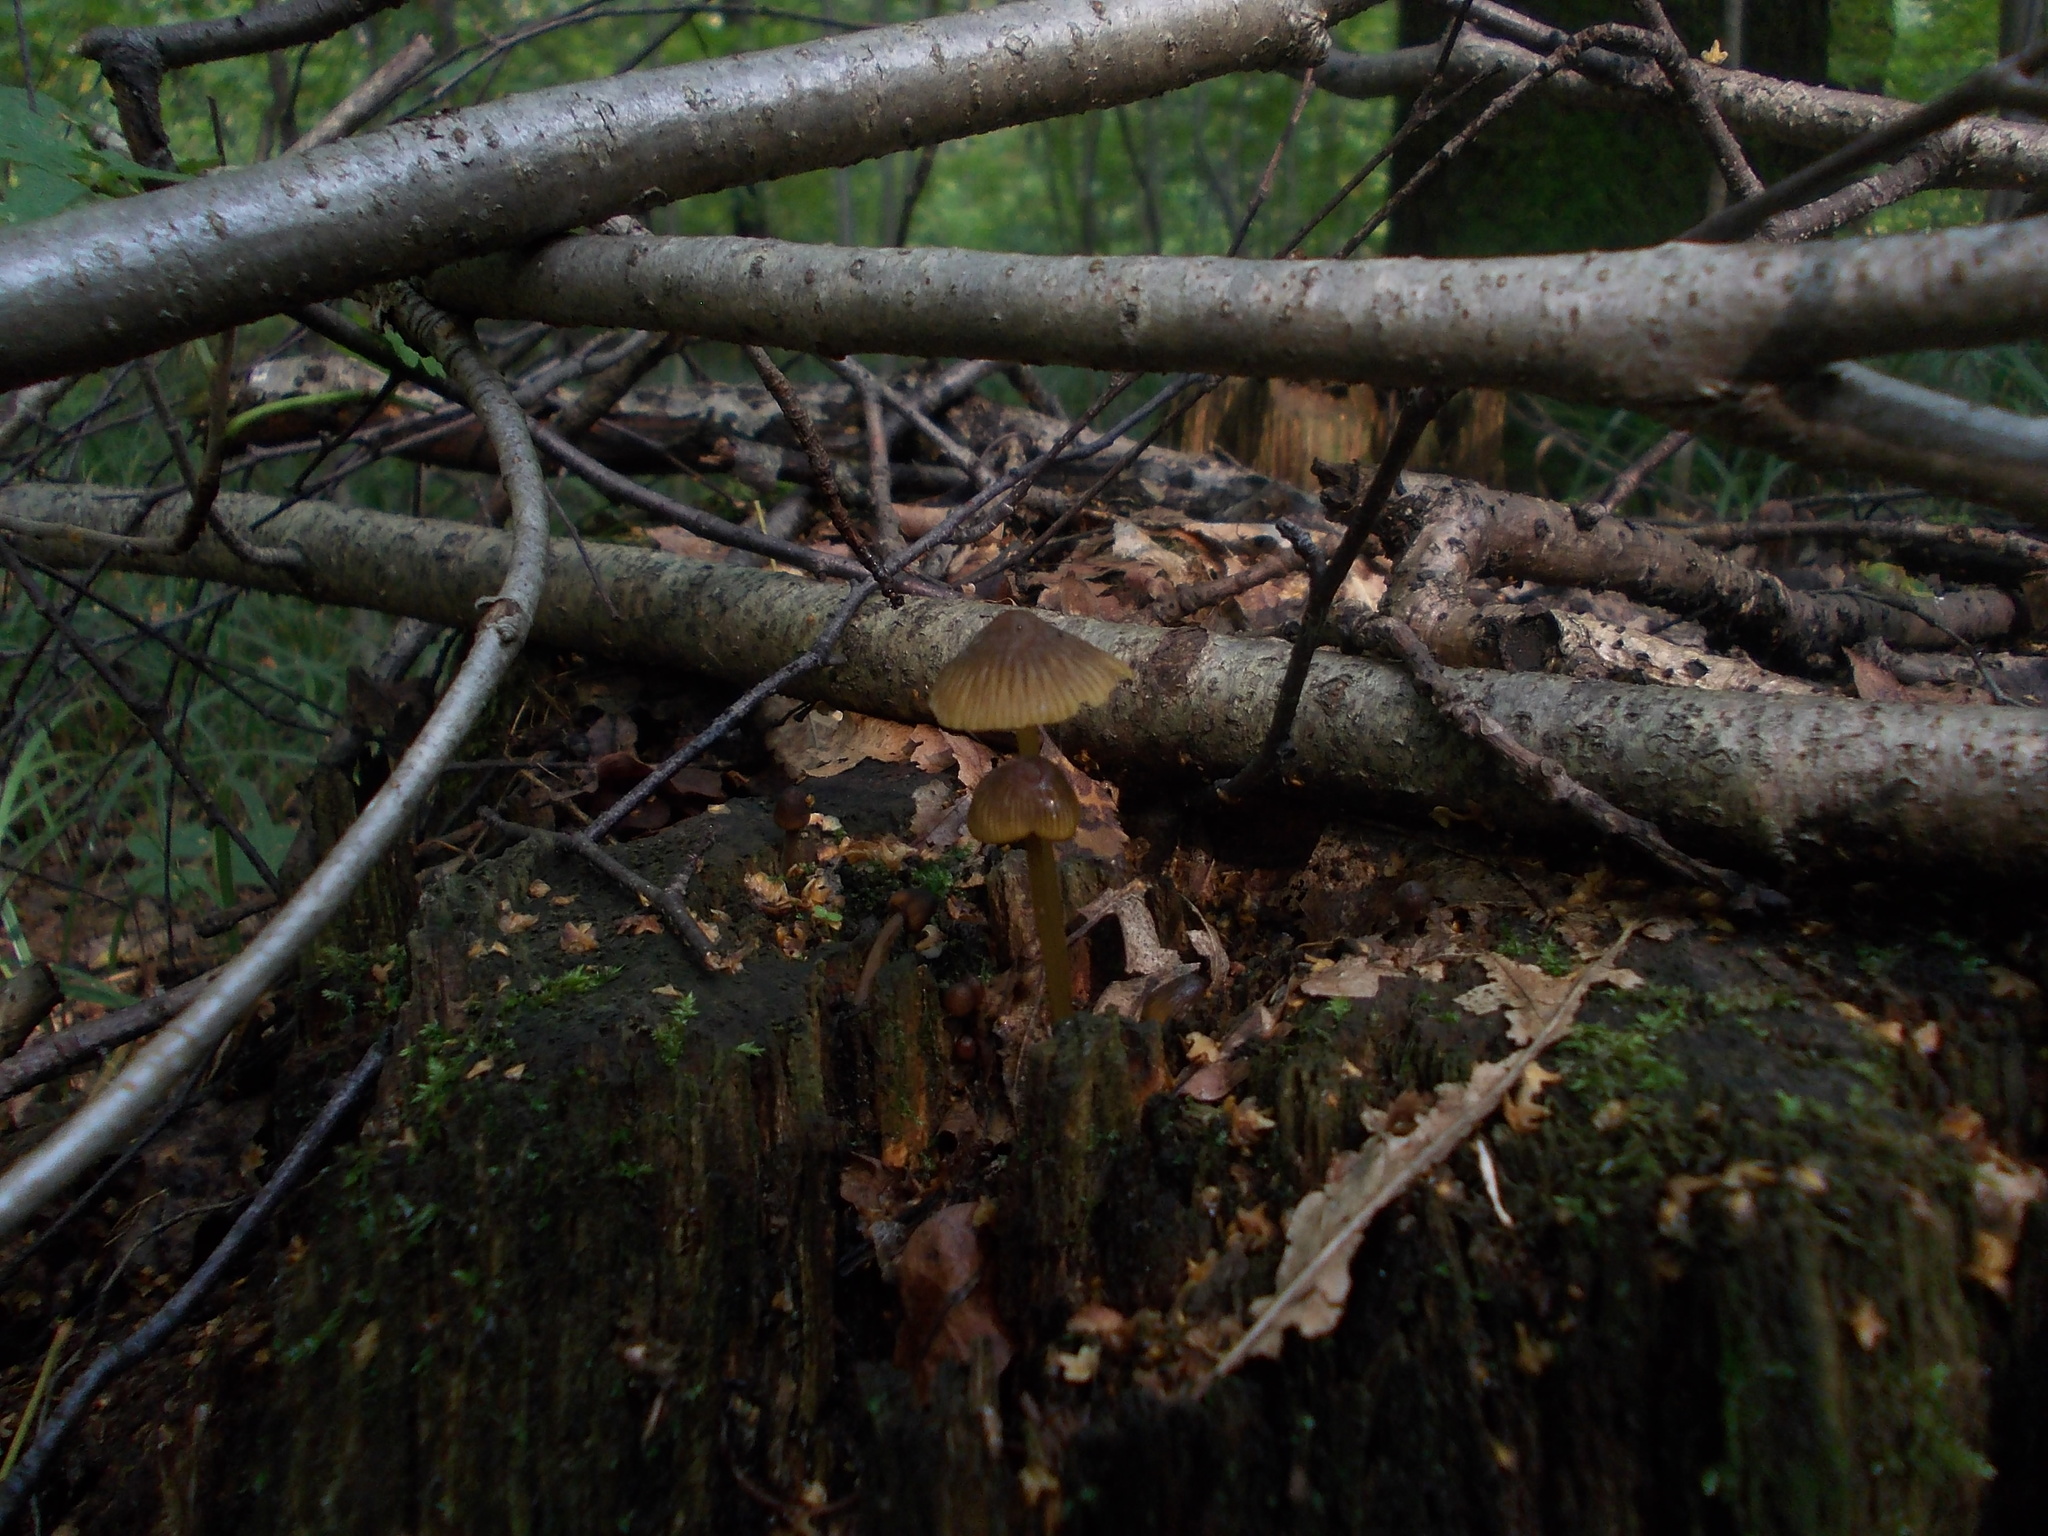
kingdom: Fungi
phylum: Basidiomycota
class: Agaricomycetes
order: Agaricales
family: Mycenaceae
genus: Mycena
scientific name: Mycena viridimarginata
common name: Olive edge bonnet
